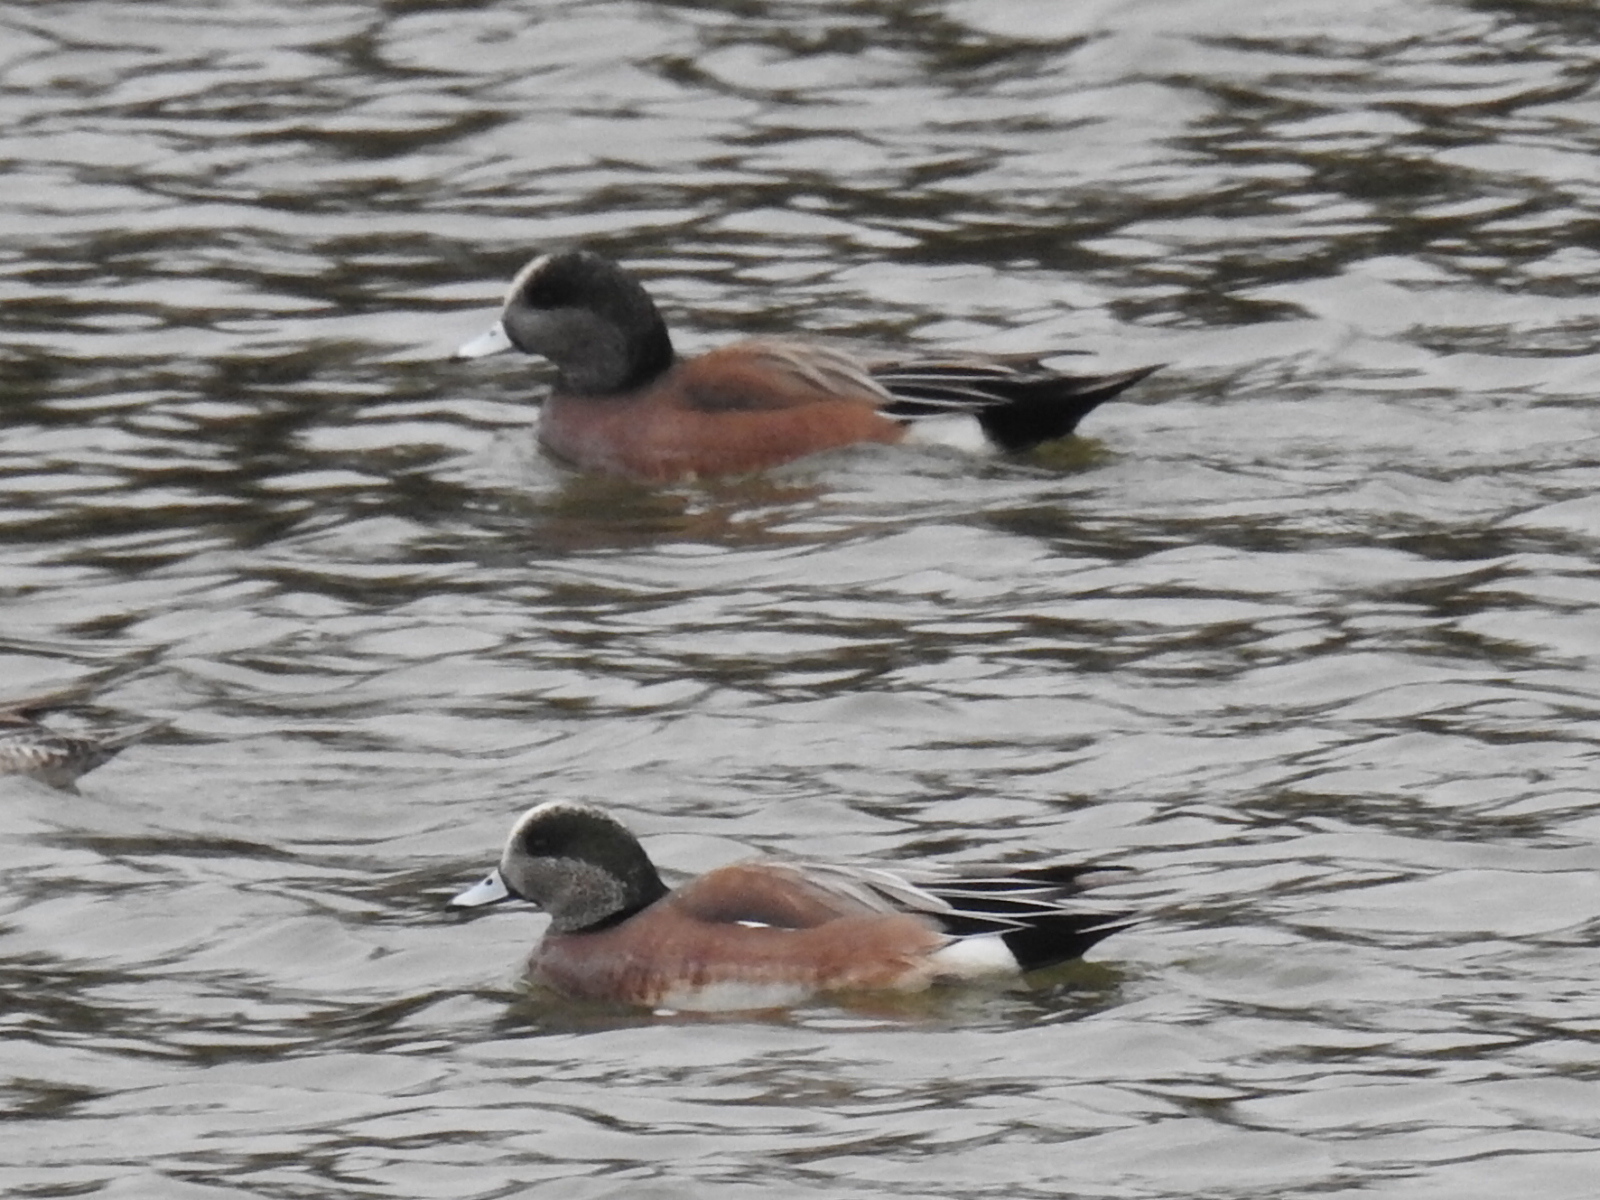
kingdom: Animalia
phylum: Chordata
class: Aves
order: Anseriformes
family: Anatidae
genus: Mareca
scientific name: Mareca americana
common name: American wigeon
